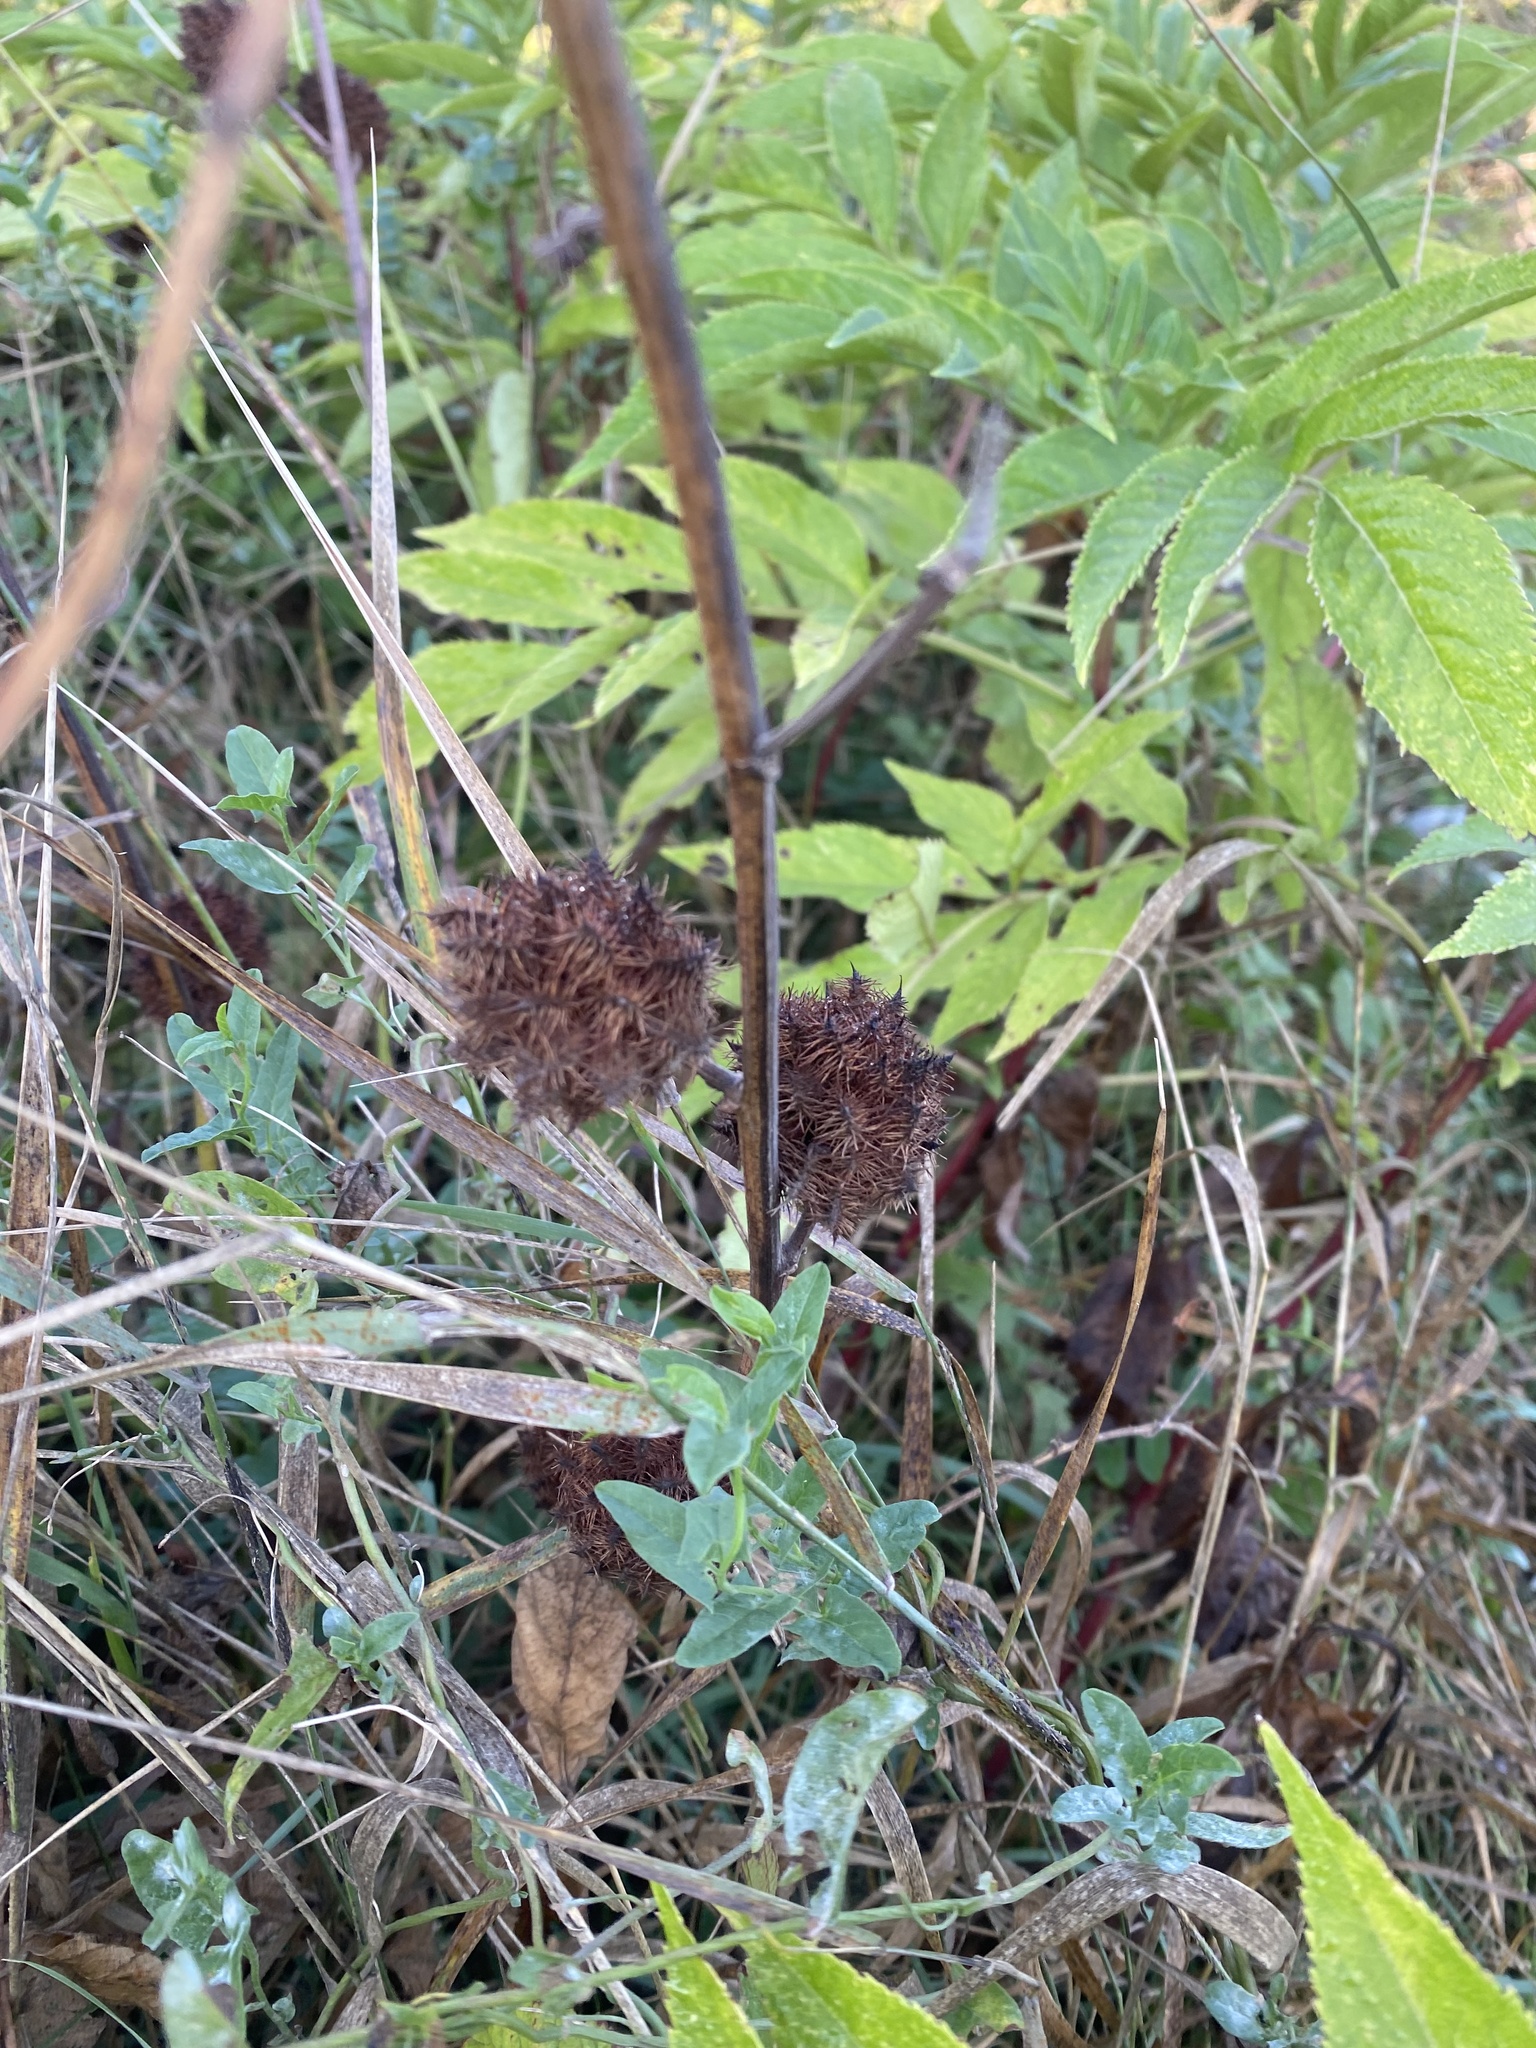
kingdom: Plantae
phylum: Tracheophyta
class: Magnoliopsida
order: Fabales
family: Fabaceae
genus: Glycyrrhiza
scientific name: Glycyrrhiza echinata
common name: German liquorice
